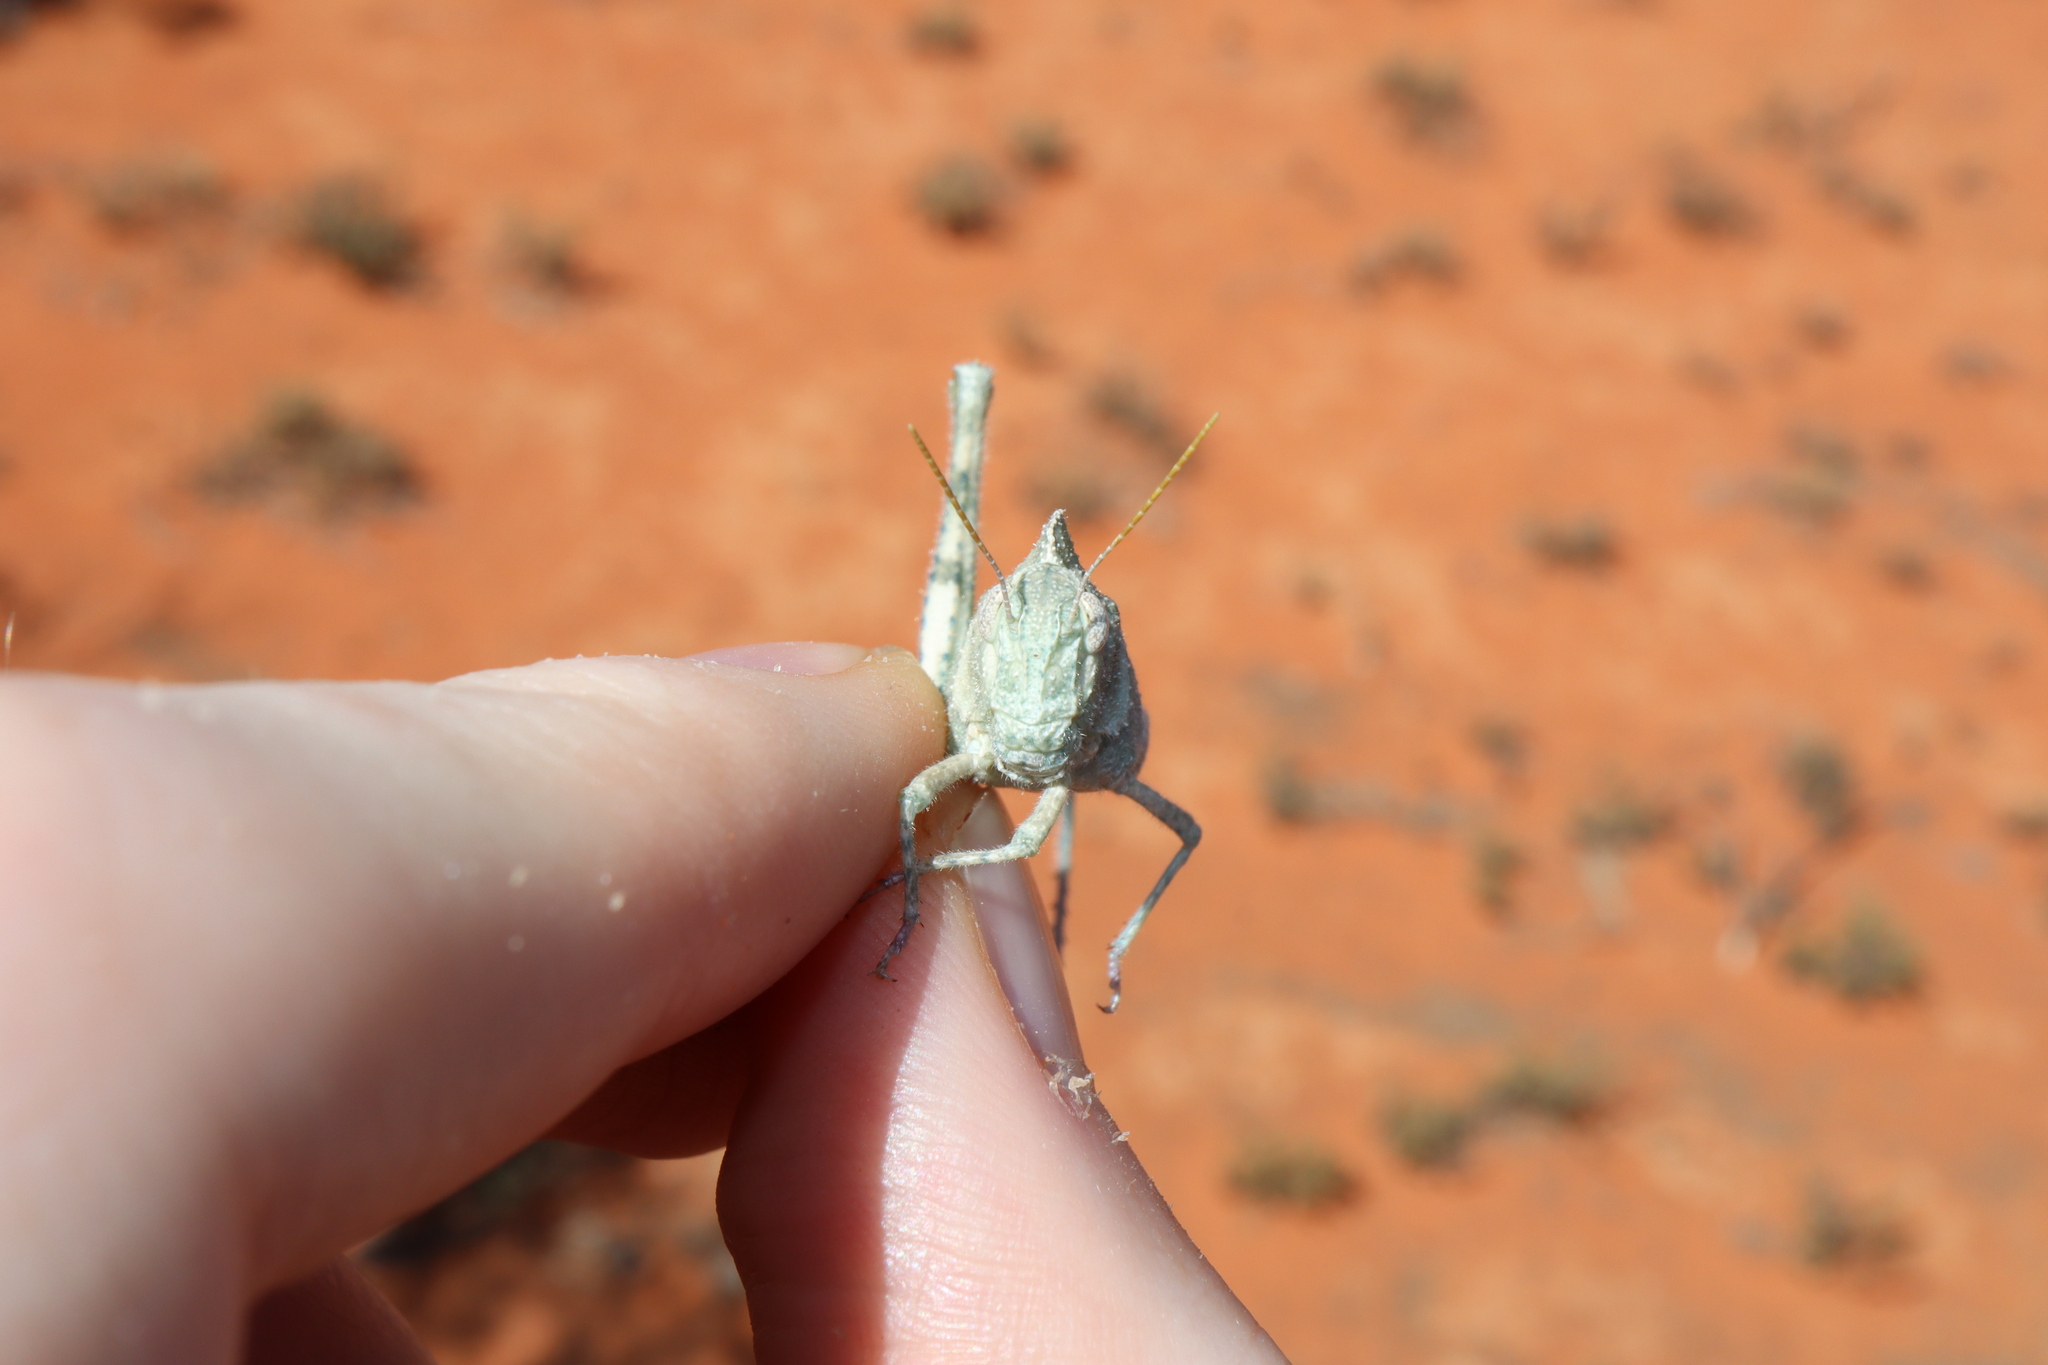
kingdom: Animalia
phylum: Arthropoda
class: Insecta
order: Orthoptera
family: Acrididae
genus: Ecphantus
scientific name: Ecphantus quadrilobus
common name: Crested tooth grinder
